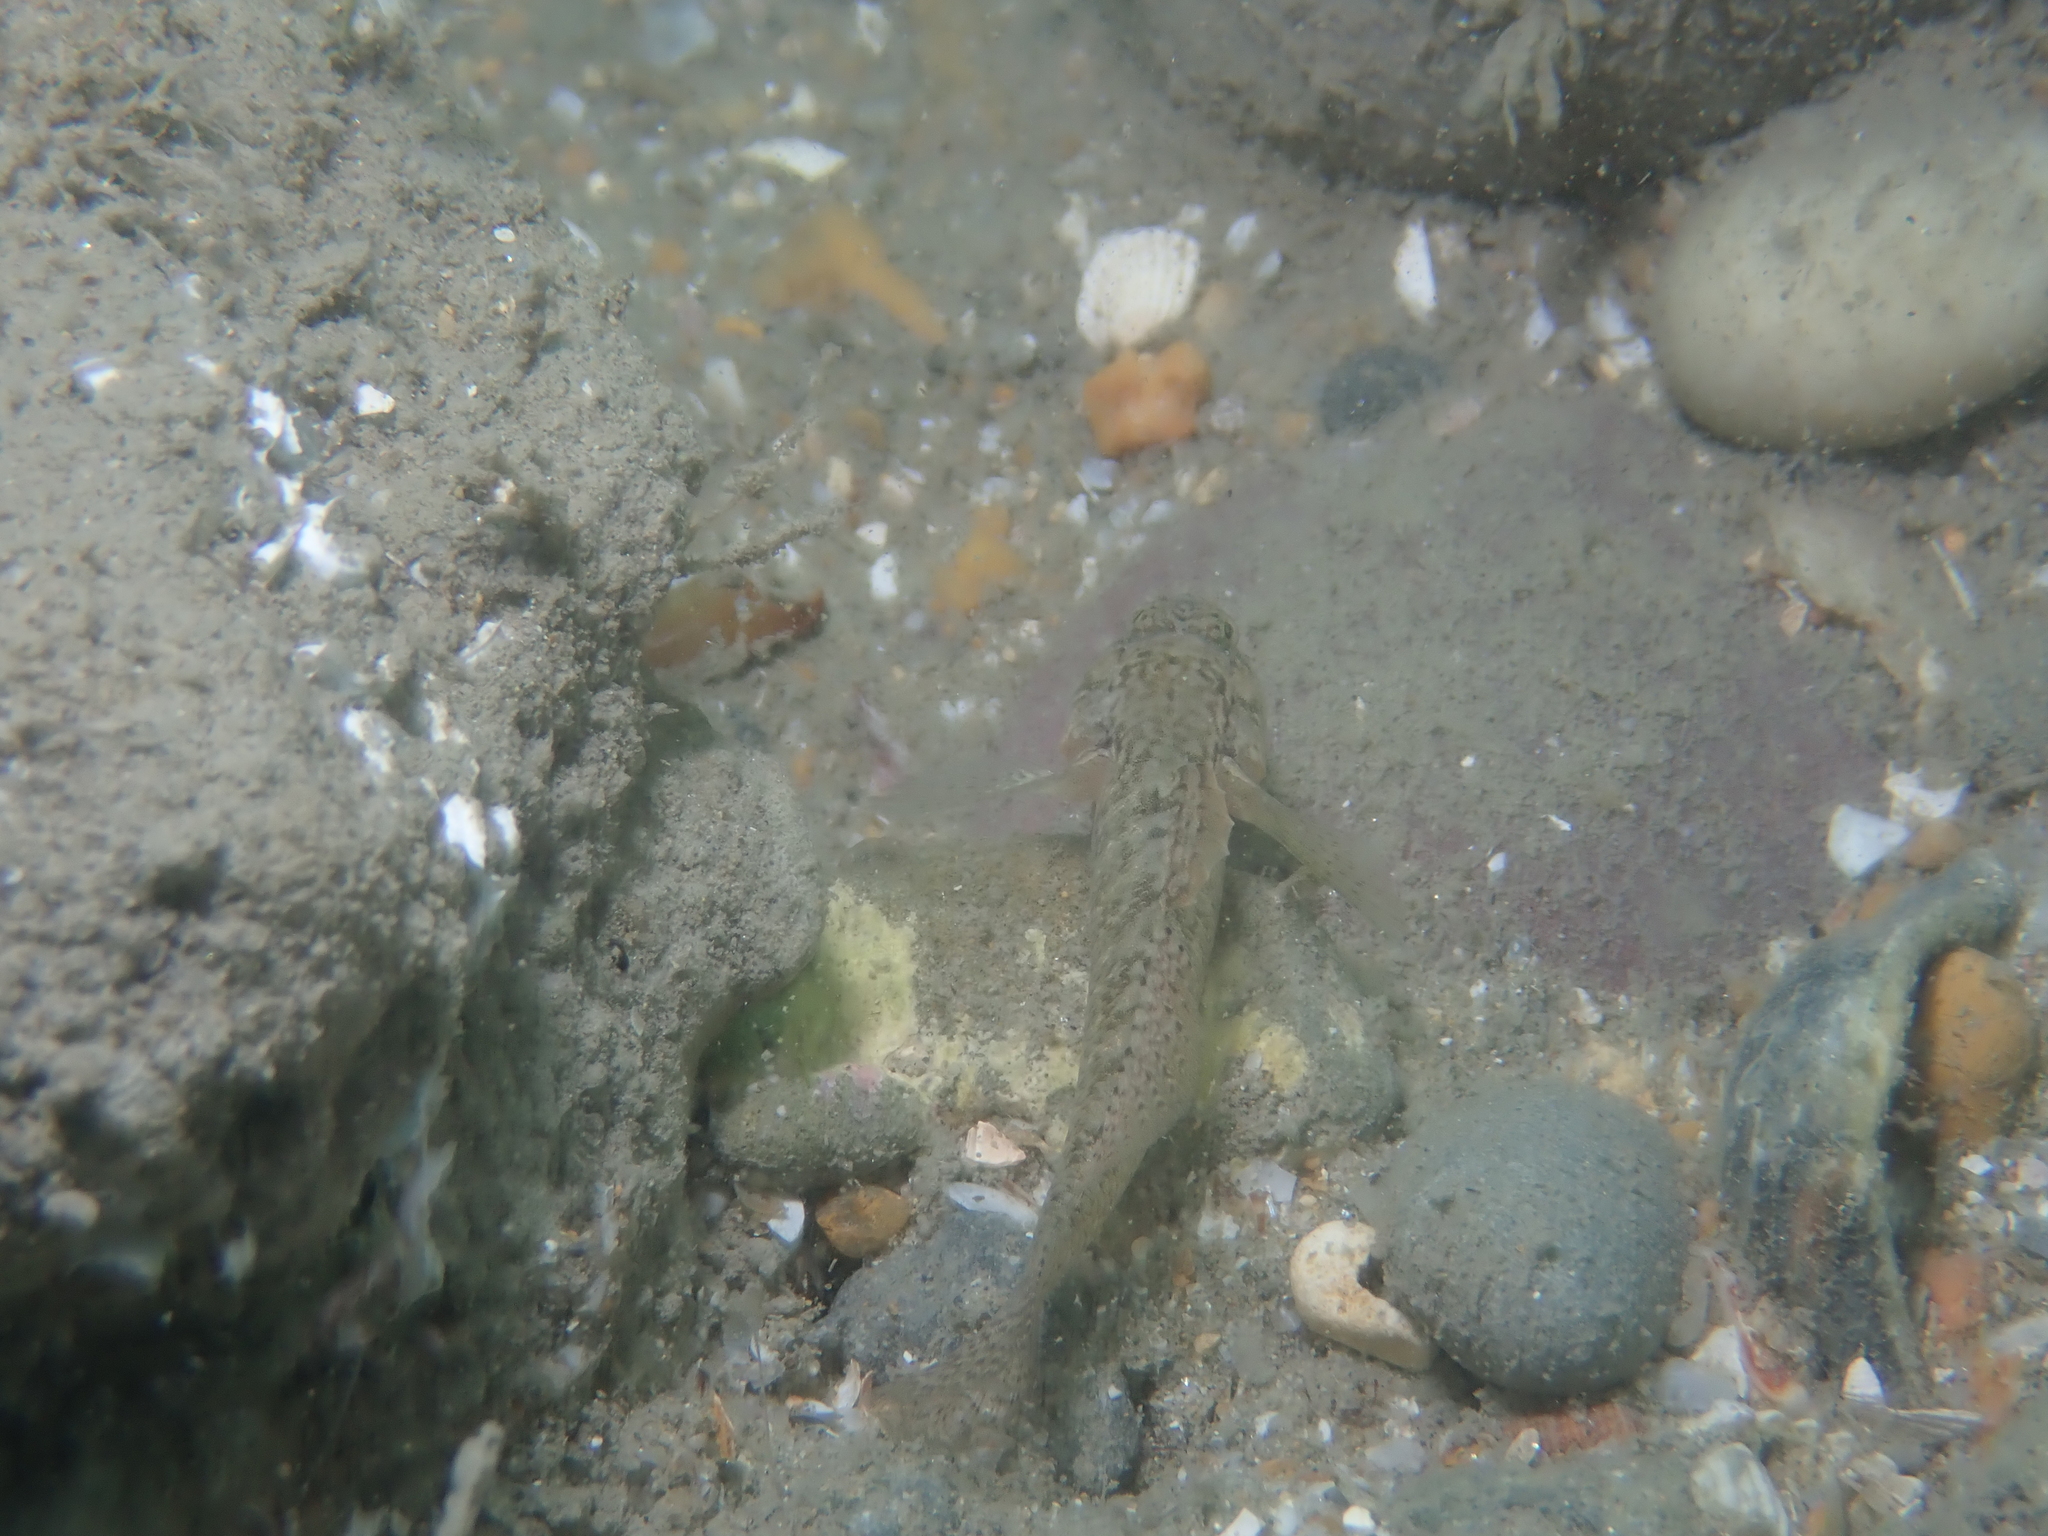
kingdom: Animalia
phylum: Chordata
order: Perciformes
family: Gobiidae
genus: Zebrus
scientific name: Zebrus zebrus
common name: Zebra goby
